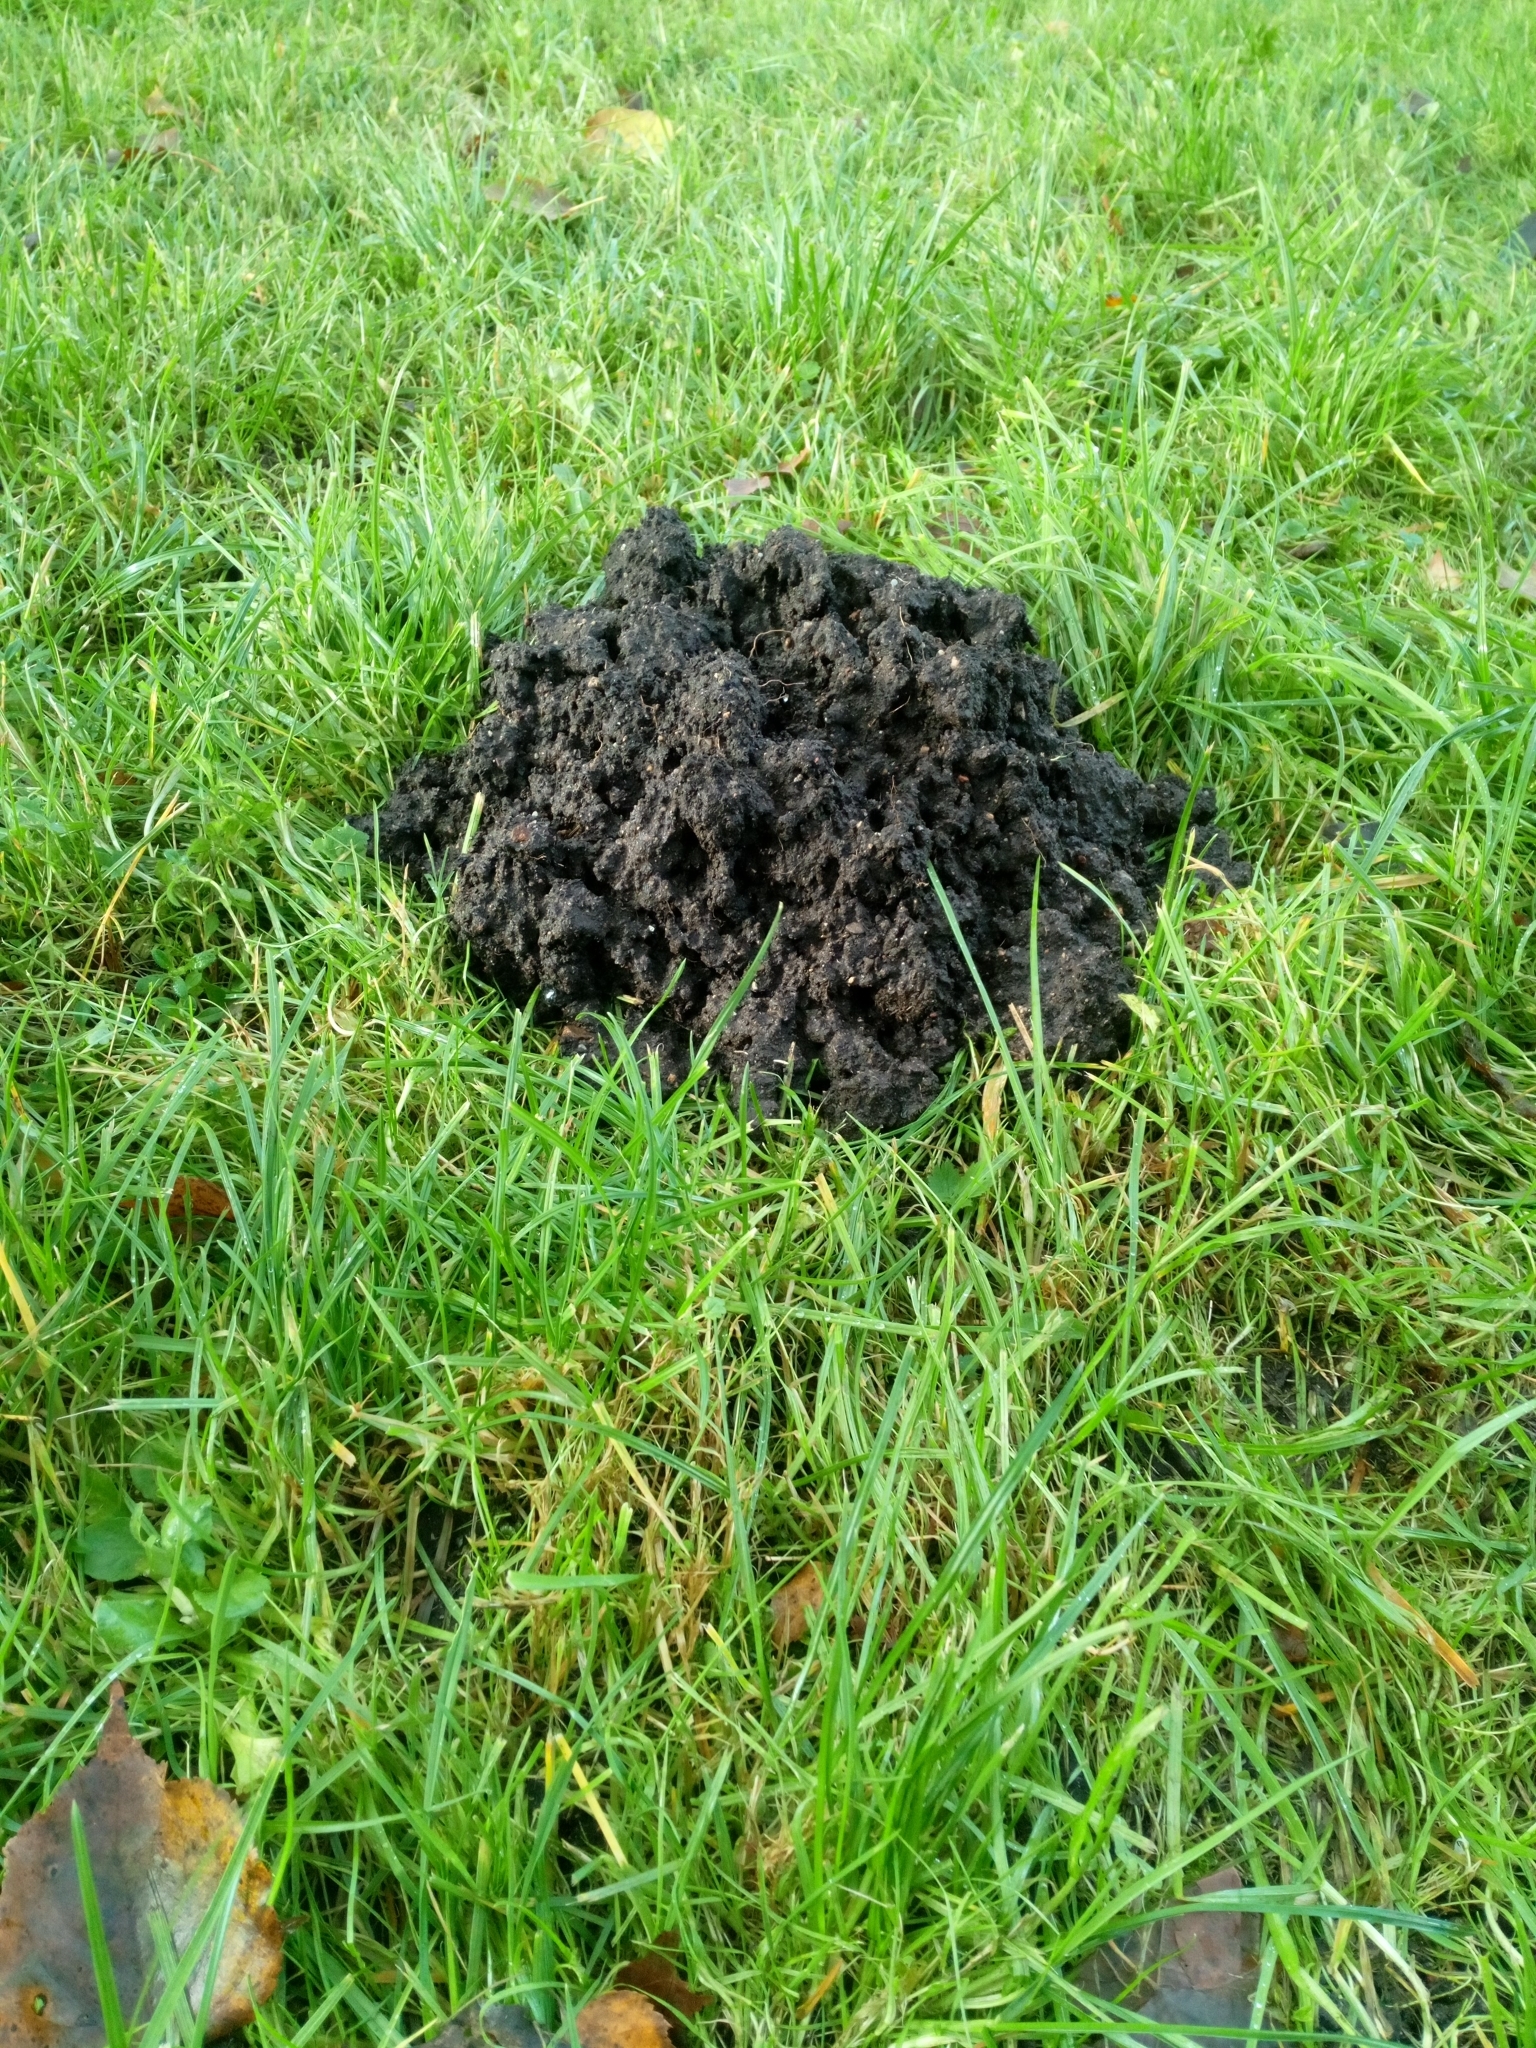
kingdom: Animalia
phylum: Chordata
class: Mammalia
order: Soricomorpha
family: Talpidae
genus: Talpa
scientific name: Talpa europaea
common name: European mole
